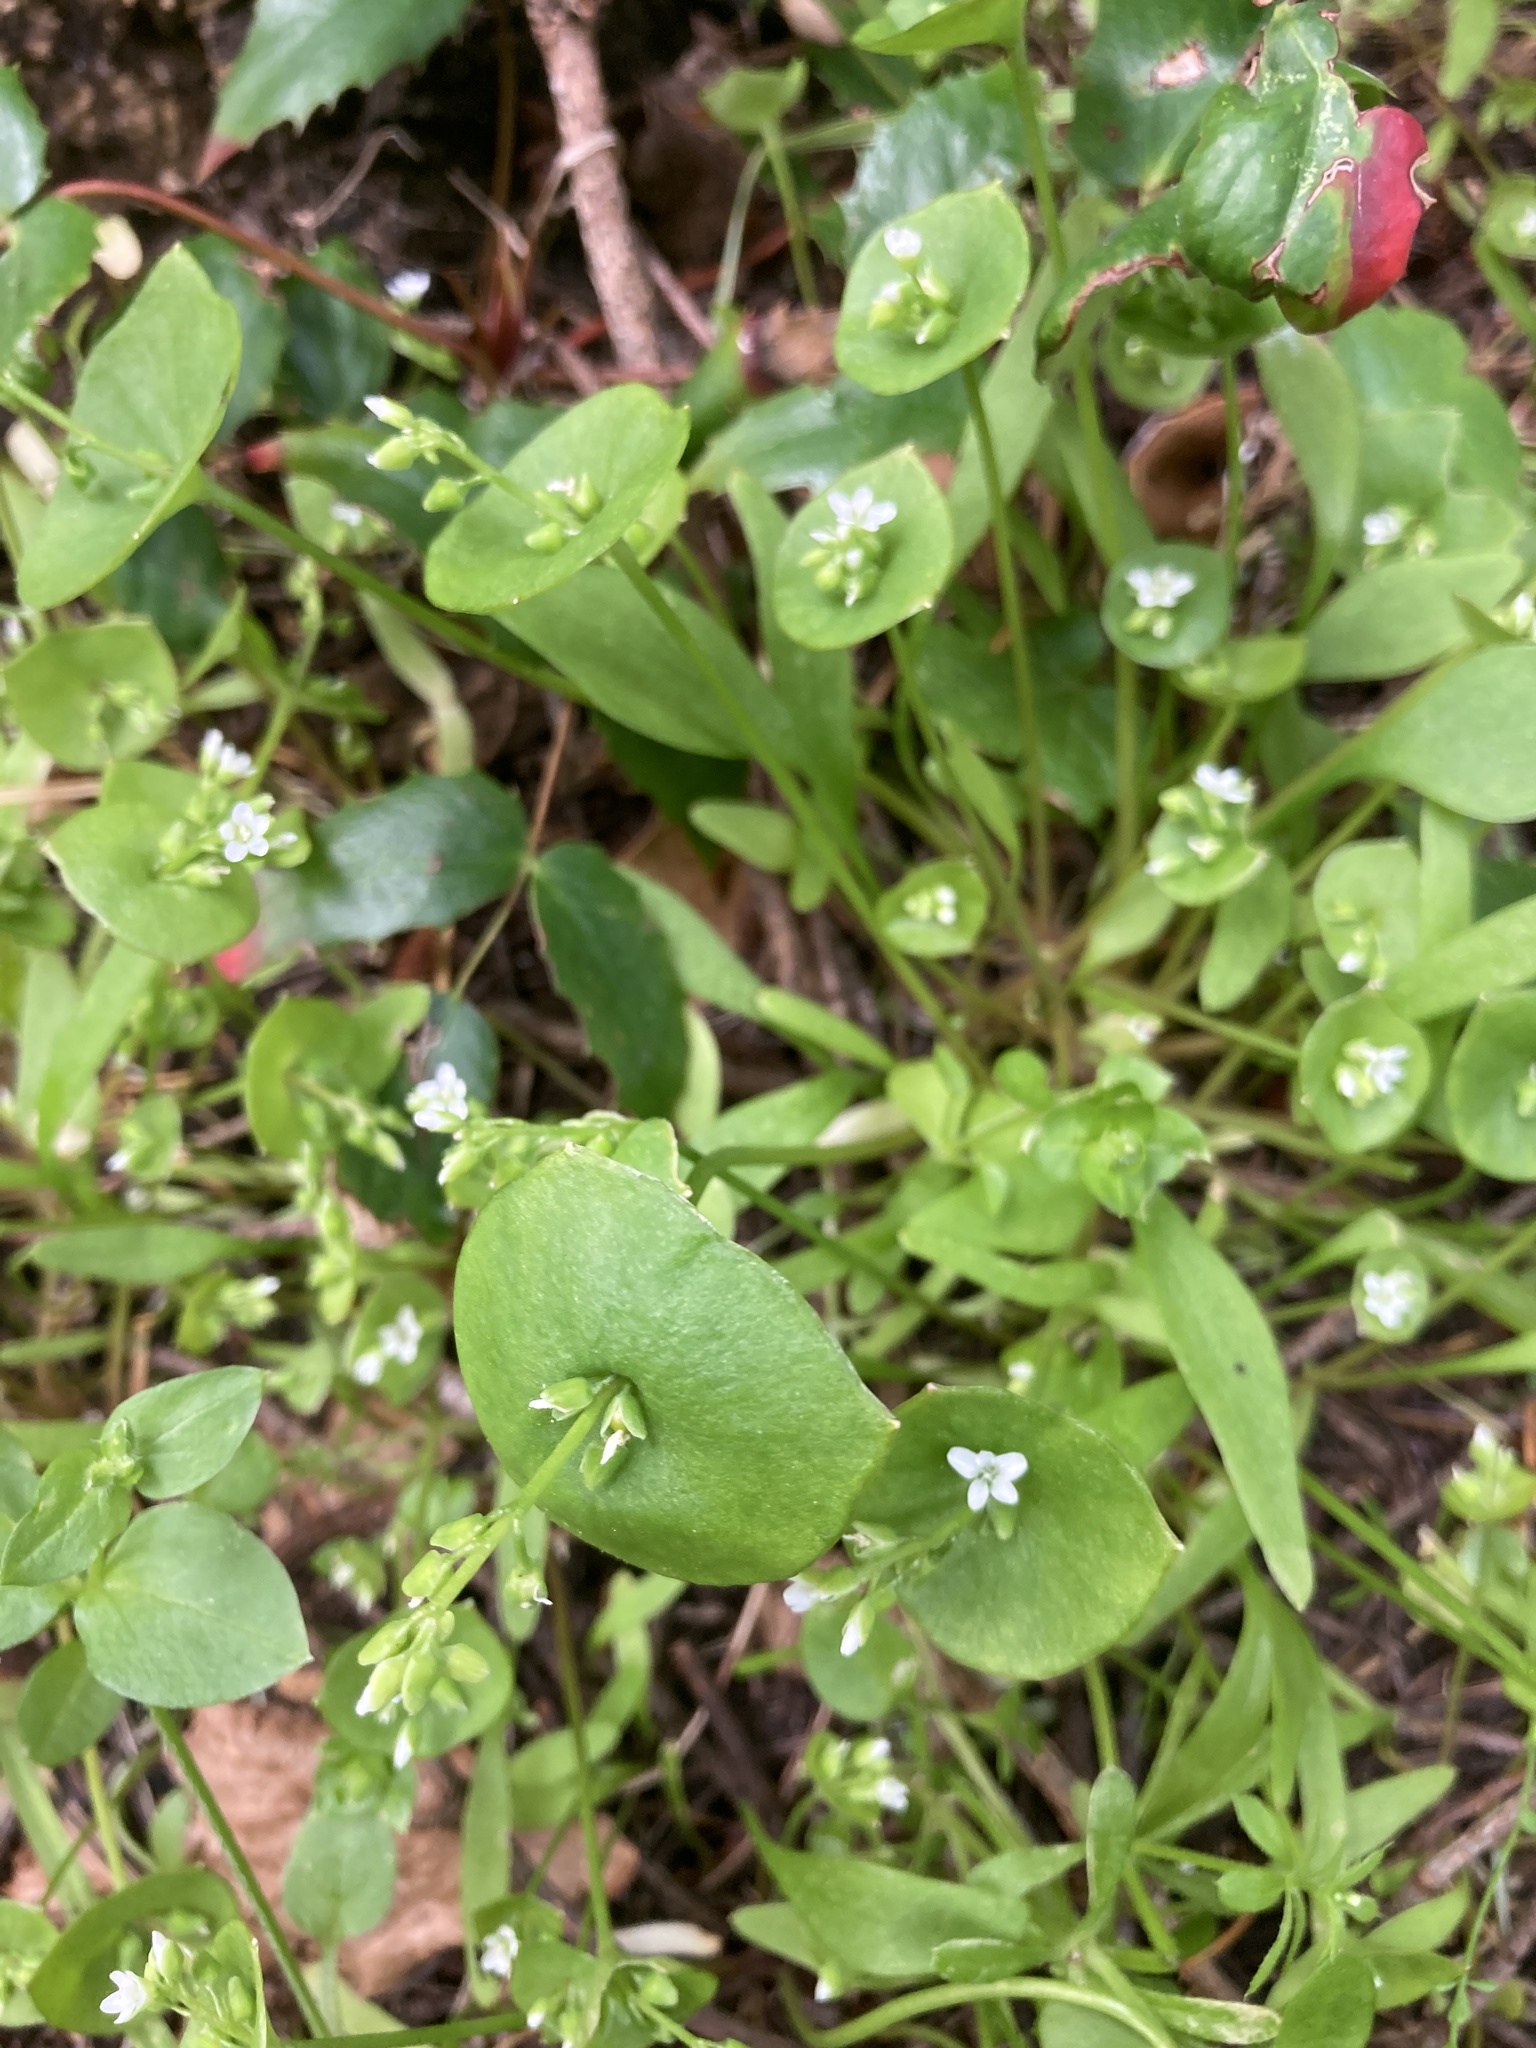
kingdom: Plantae
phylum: Tracheophyta
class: Magnoliopsida
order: Caryophyllales
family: Montiaceae
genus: Claytonia
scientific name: Claytonia perfoliata
